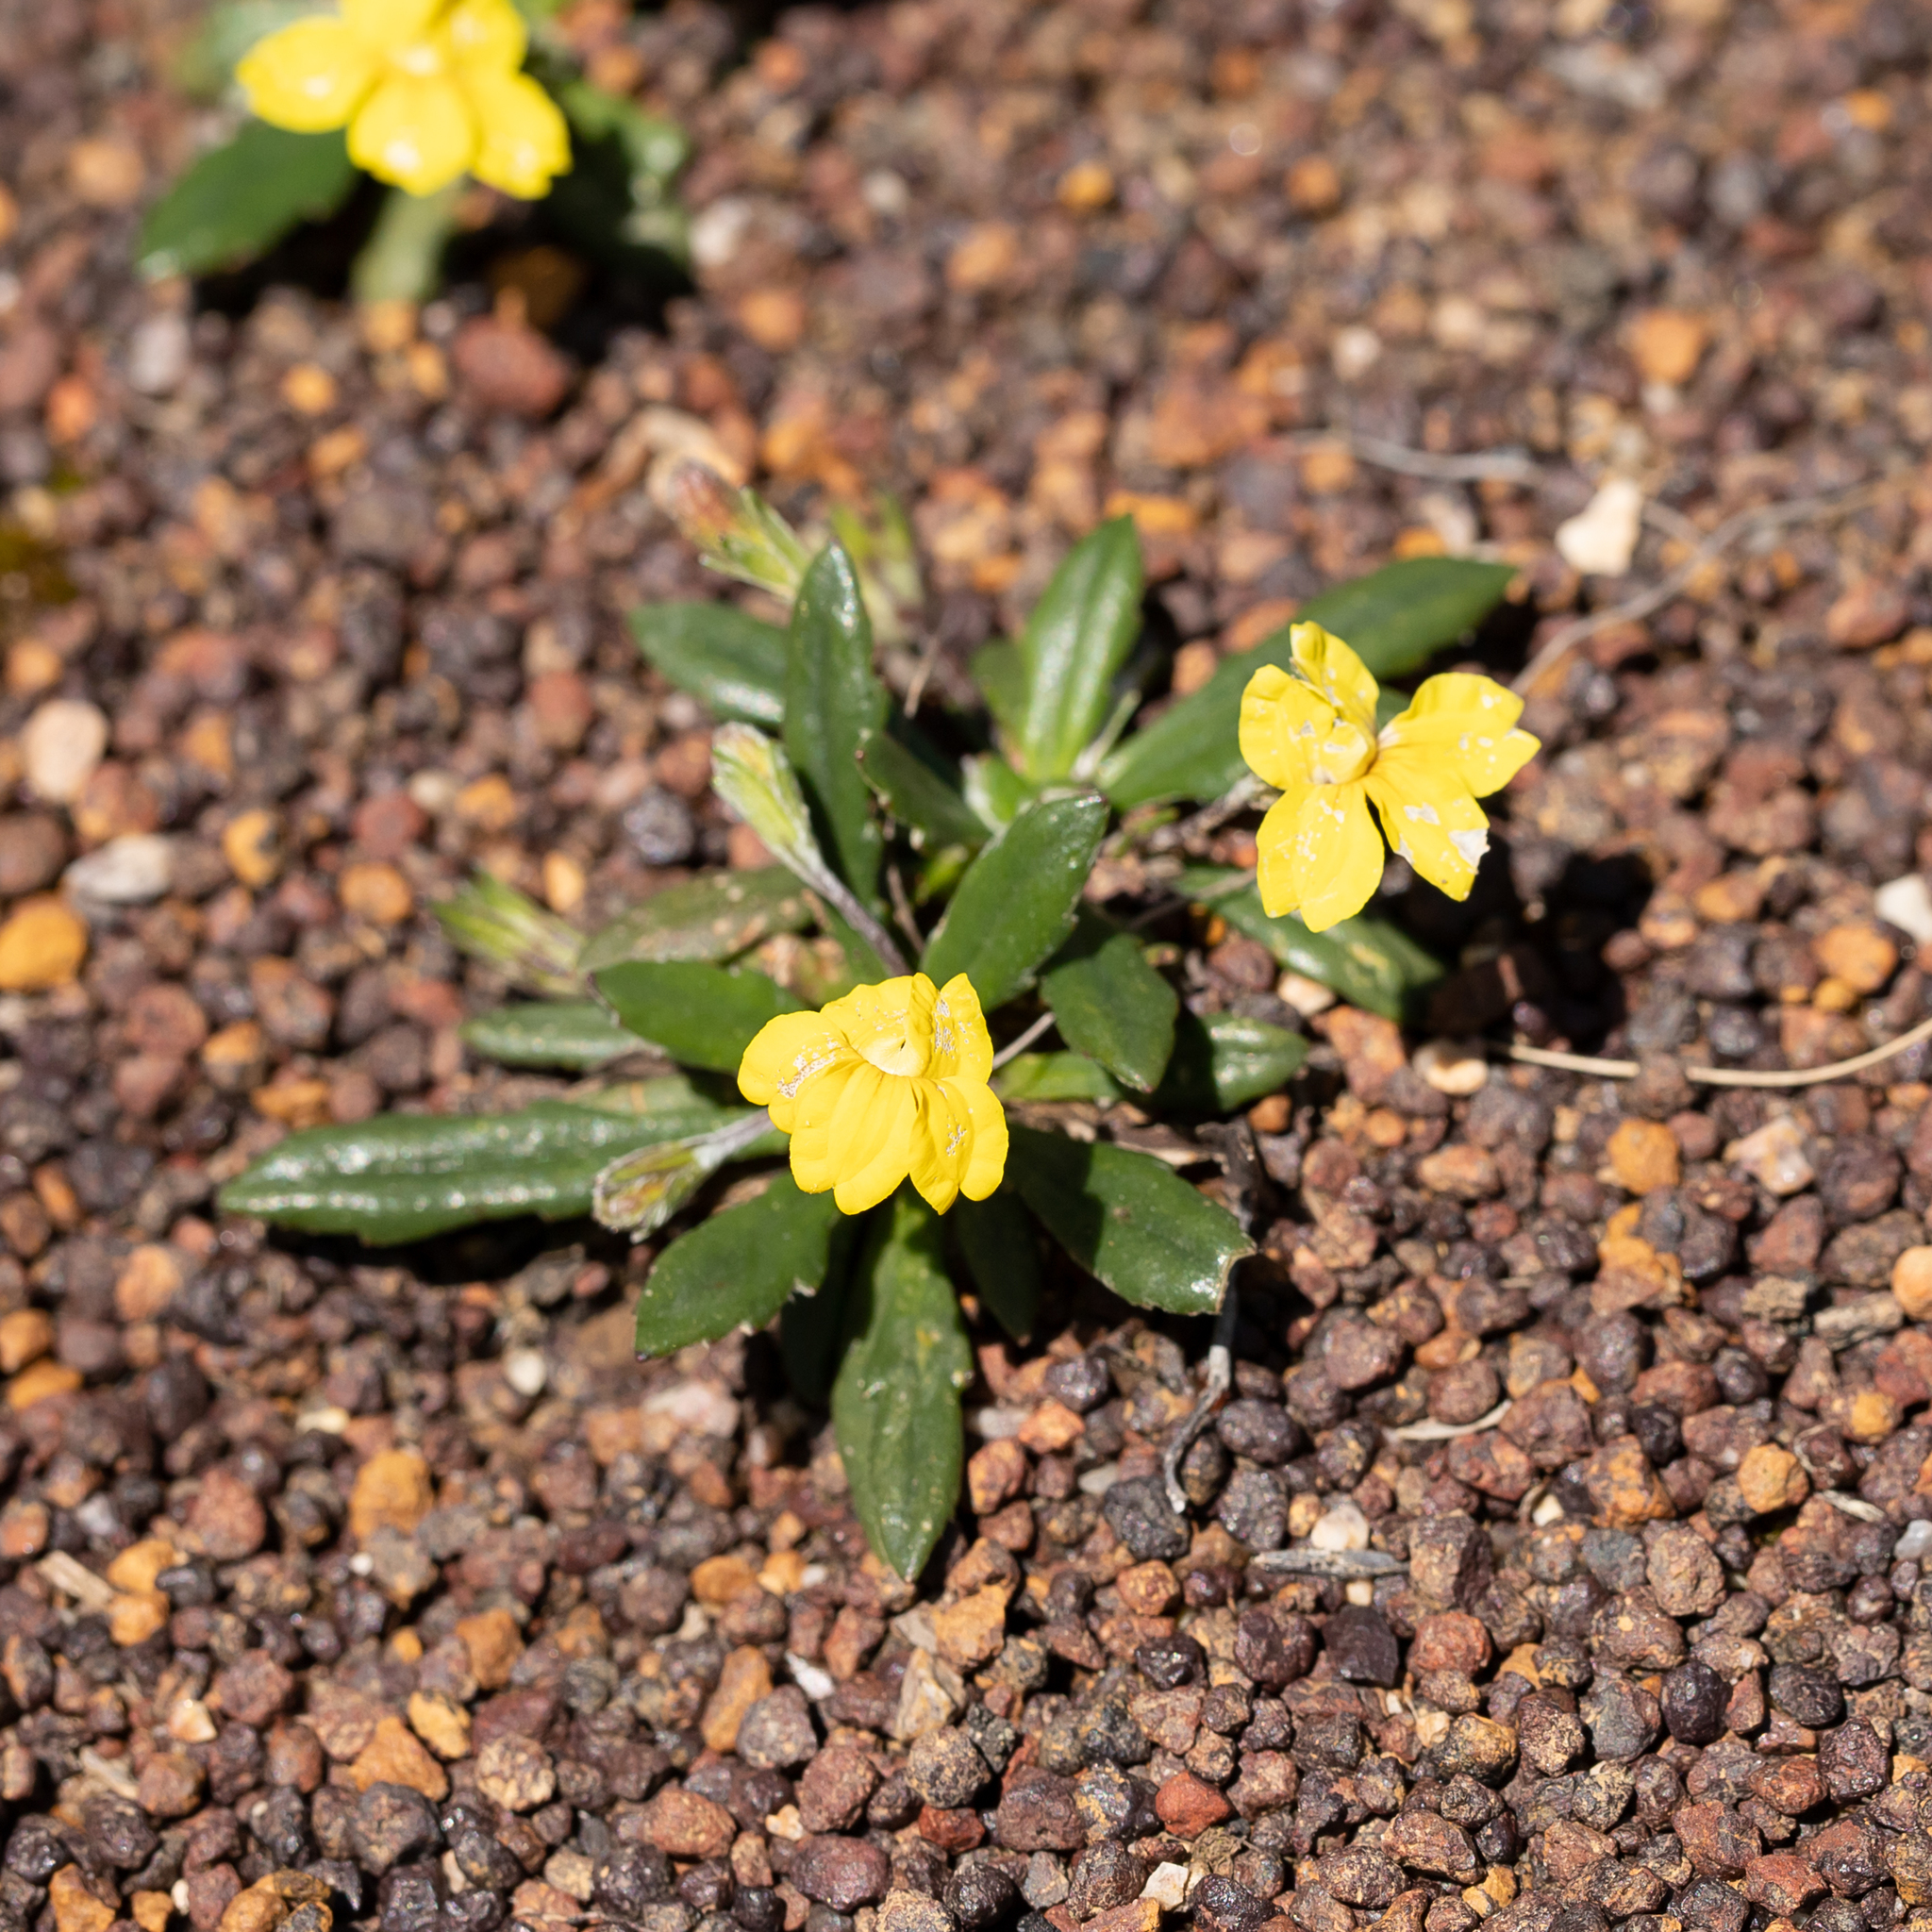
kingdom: Plantae
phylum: Tracheophyta
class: Magnoliopsida
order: Asterales
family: Goodeniaceae
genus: Goodenia
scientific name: Goodenia blackiana
